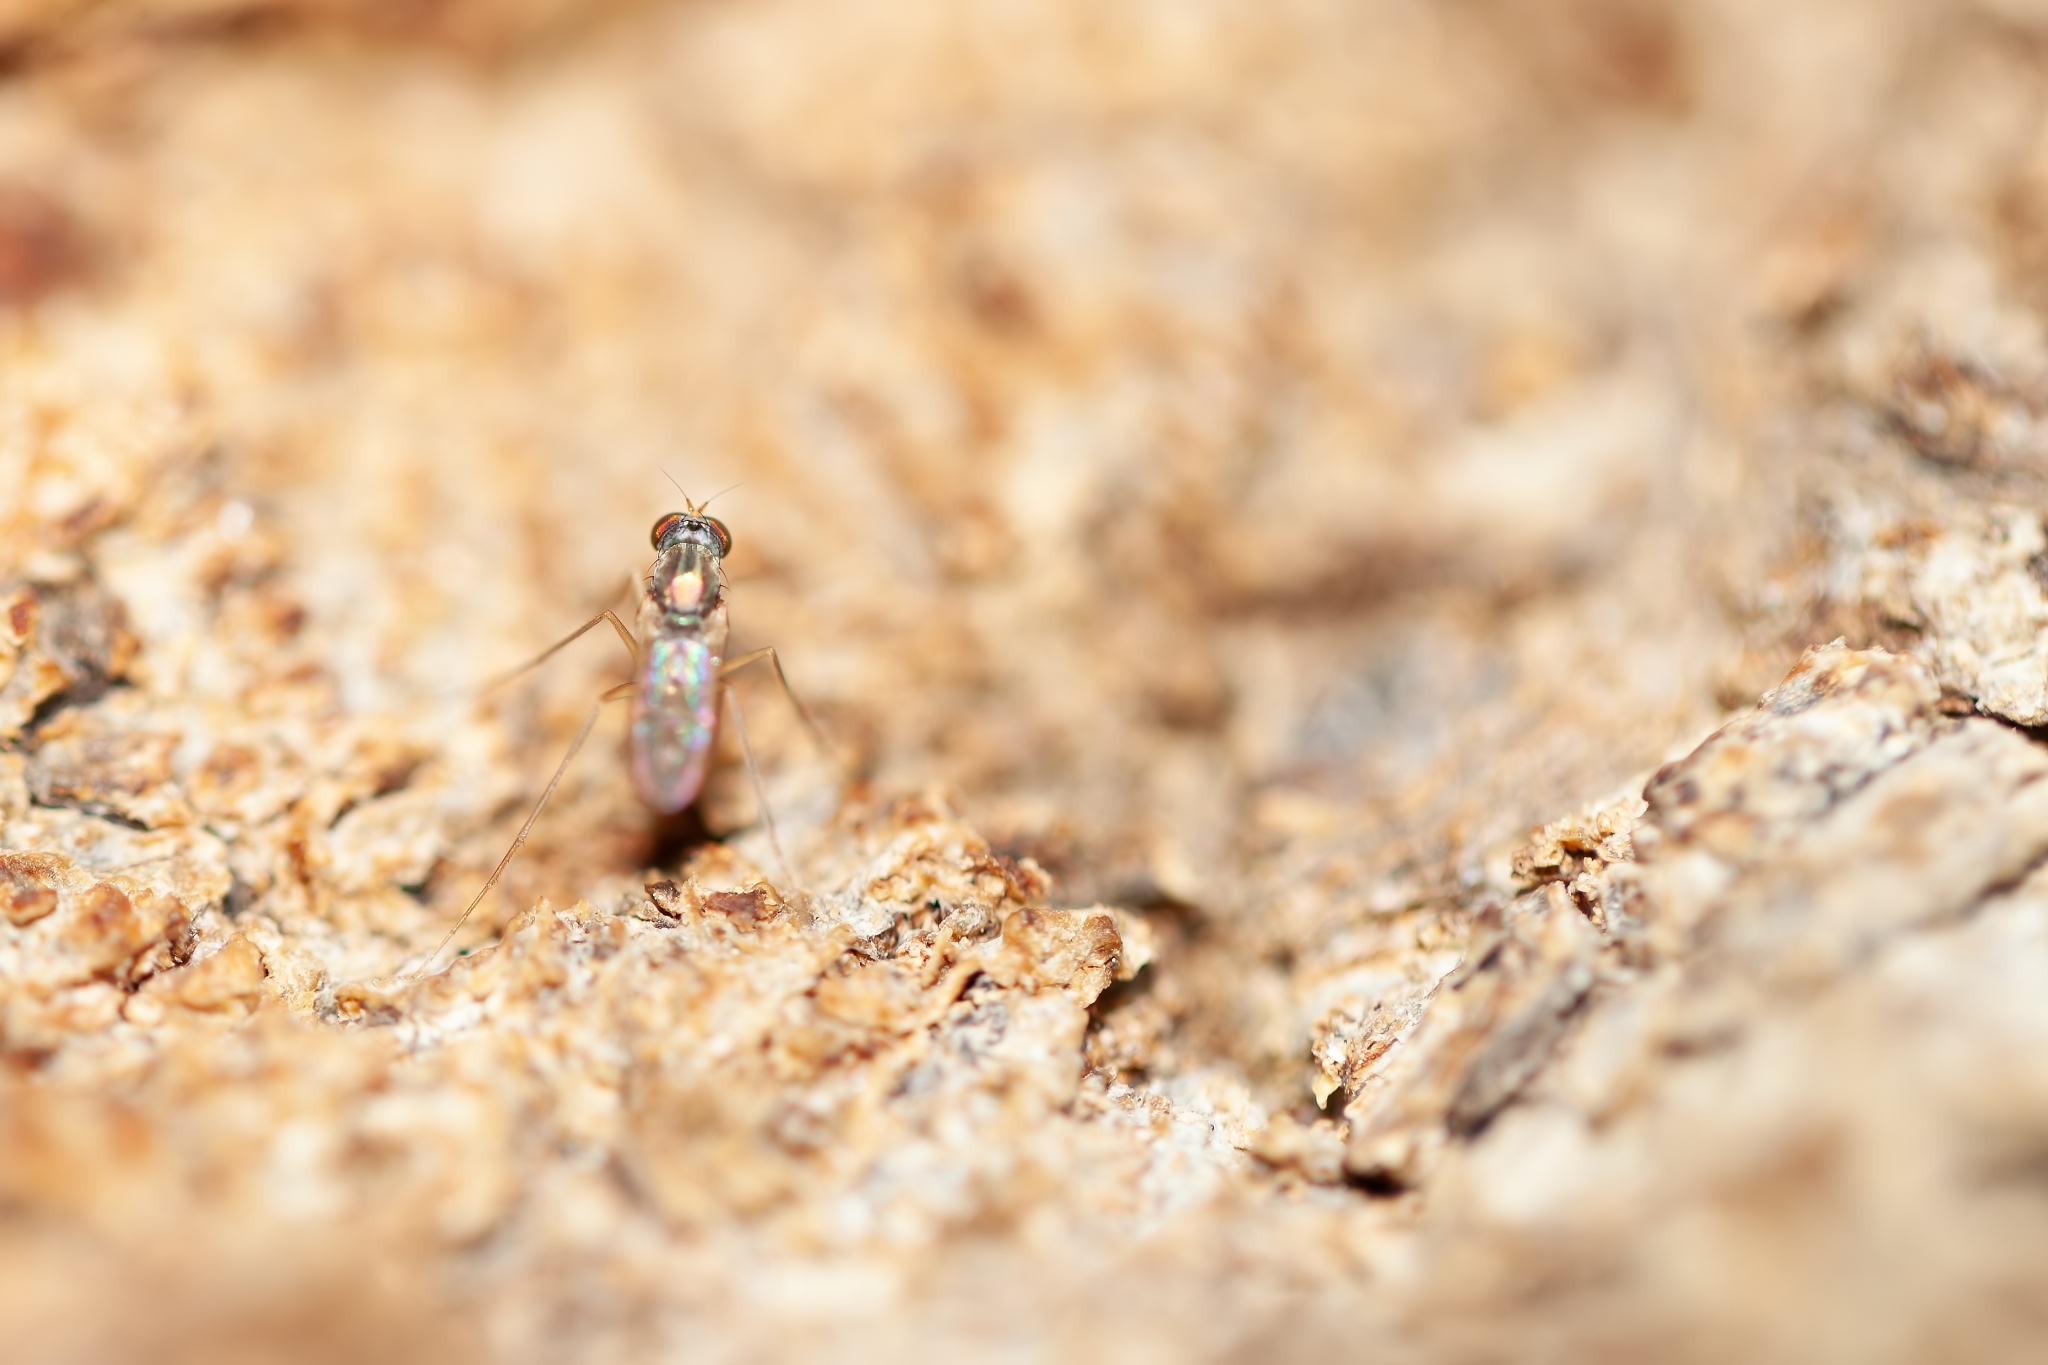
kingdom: Animalia
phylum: Arthropoda
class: Insecta
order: Diptera
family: Dolichopodidae
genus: Dactylomyia
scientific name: Dactylomyia lateralis
